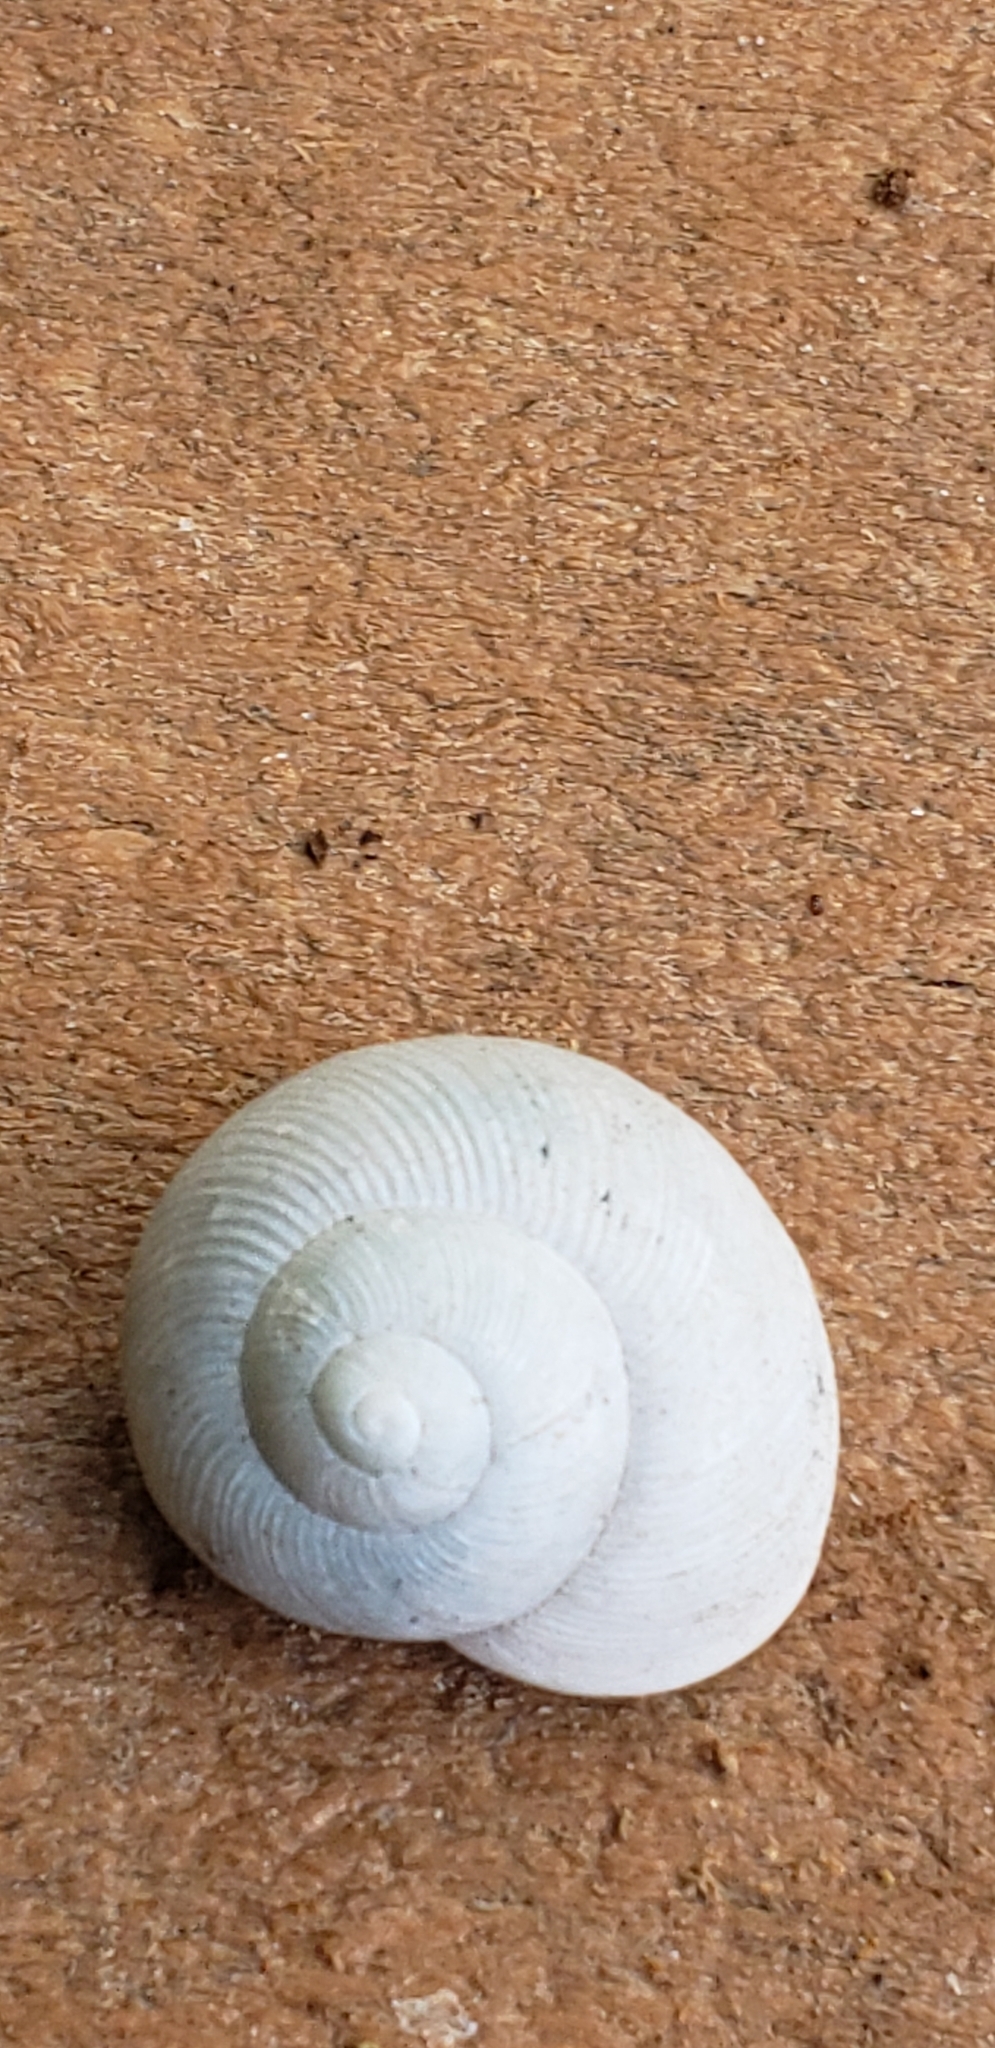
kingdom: Animalia
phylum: Mollusca
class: Gastropoda
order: Stylommatophora
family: Zachrysiidae
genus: Zachrysia
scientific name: Zachrysia provisoria
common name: Garden zachrysia
